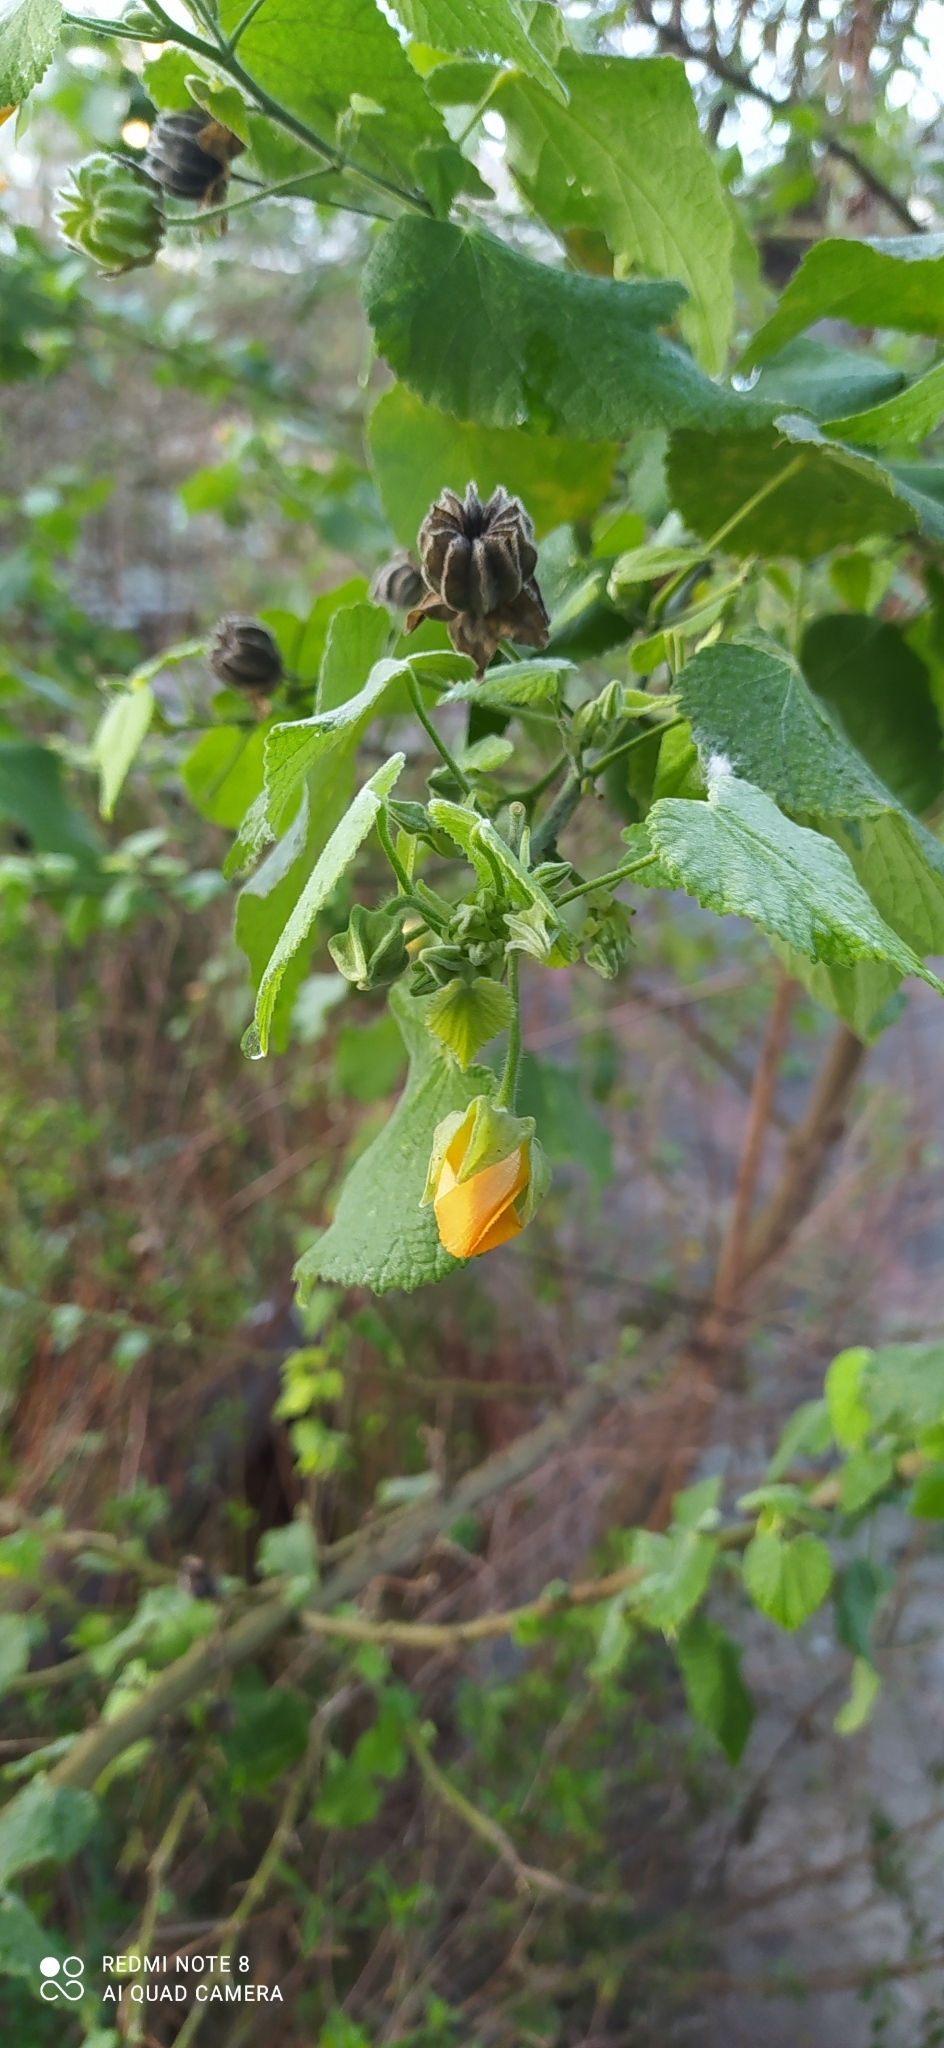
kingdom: Plantae
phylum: Tracheophyta
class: Magnoliopsida
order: Malvales
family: Malvaceae
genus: Abutilon
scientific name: Abutilon grandifolium
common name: Hairy abutilon
